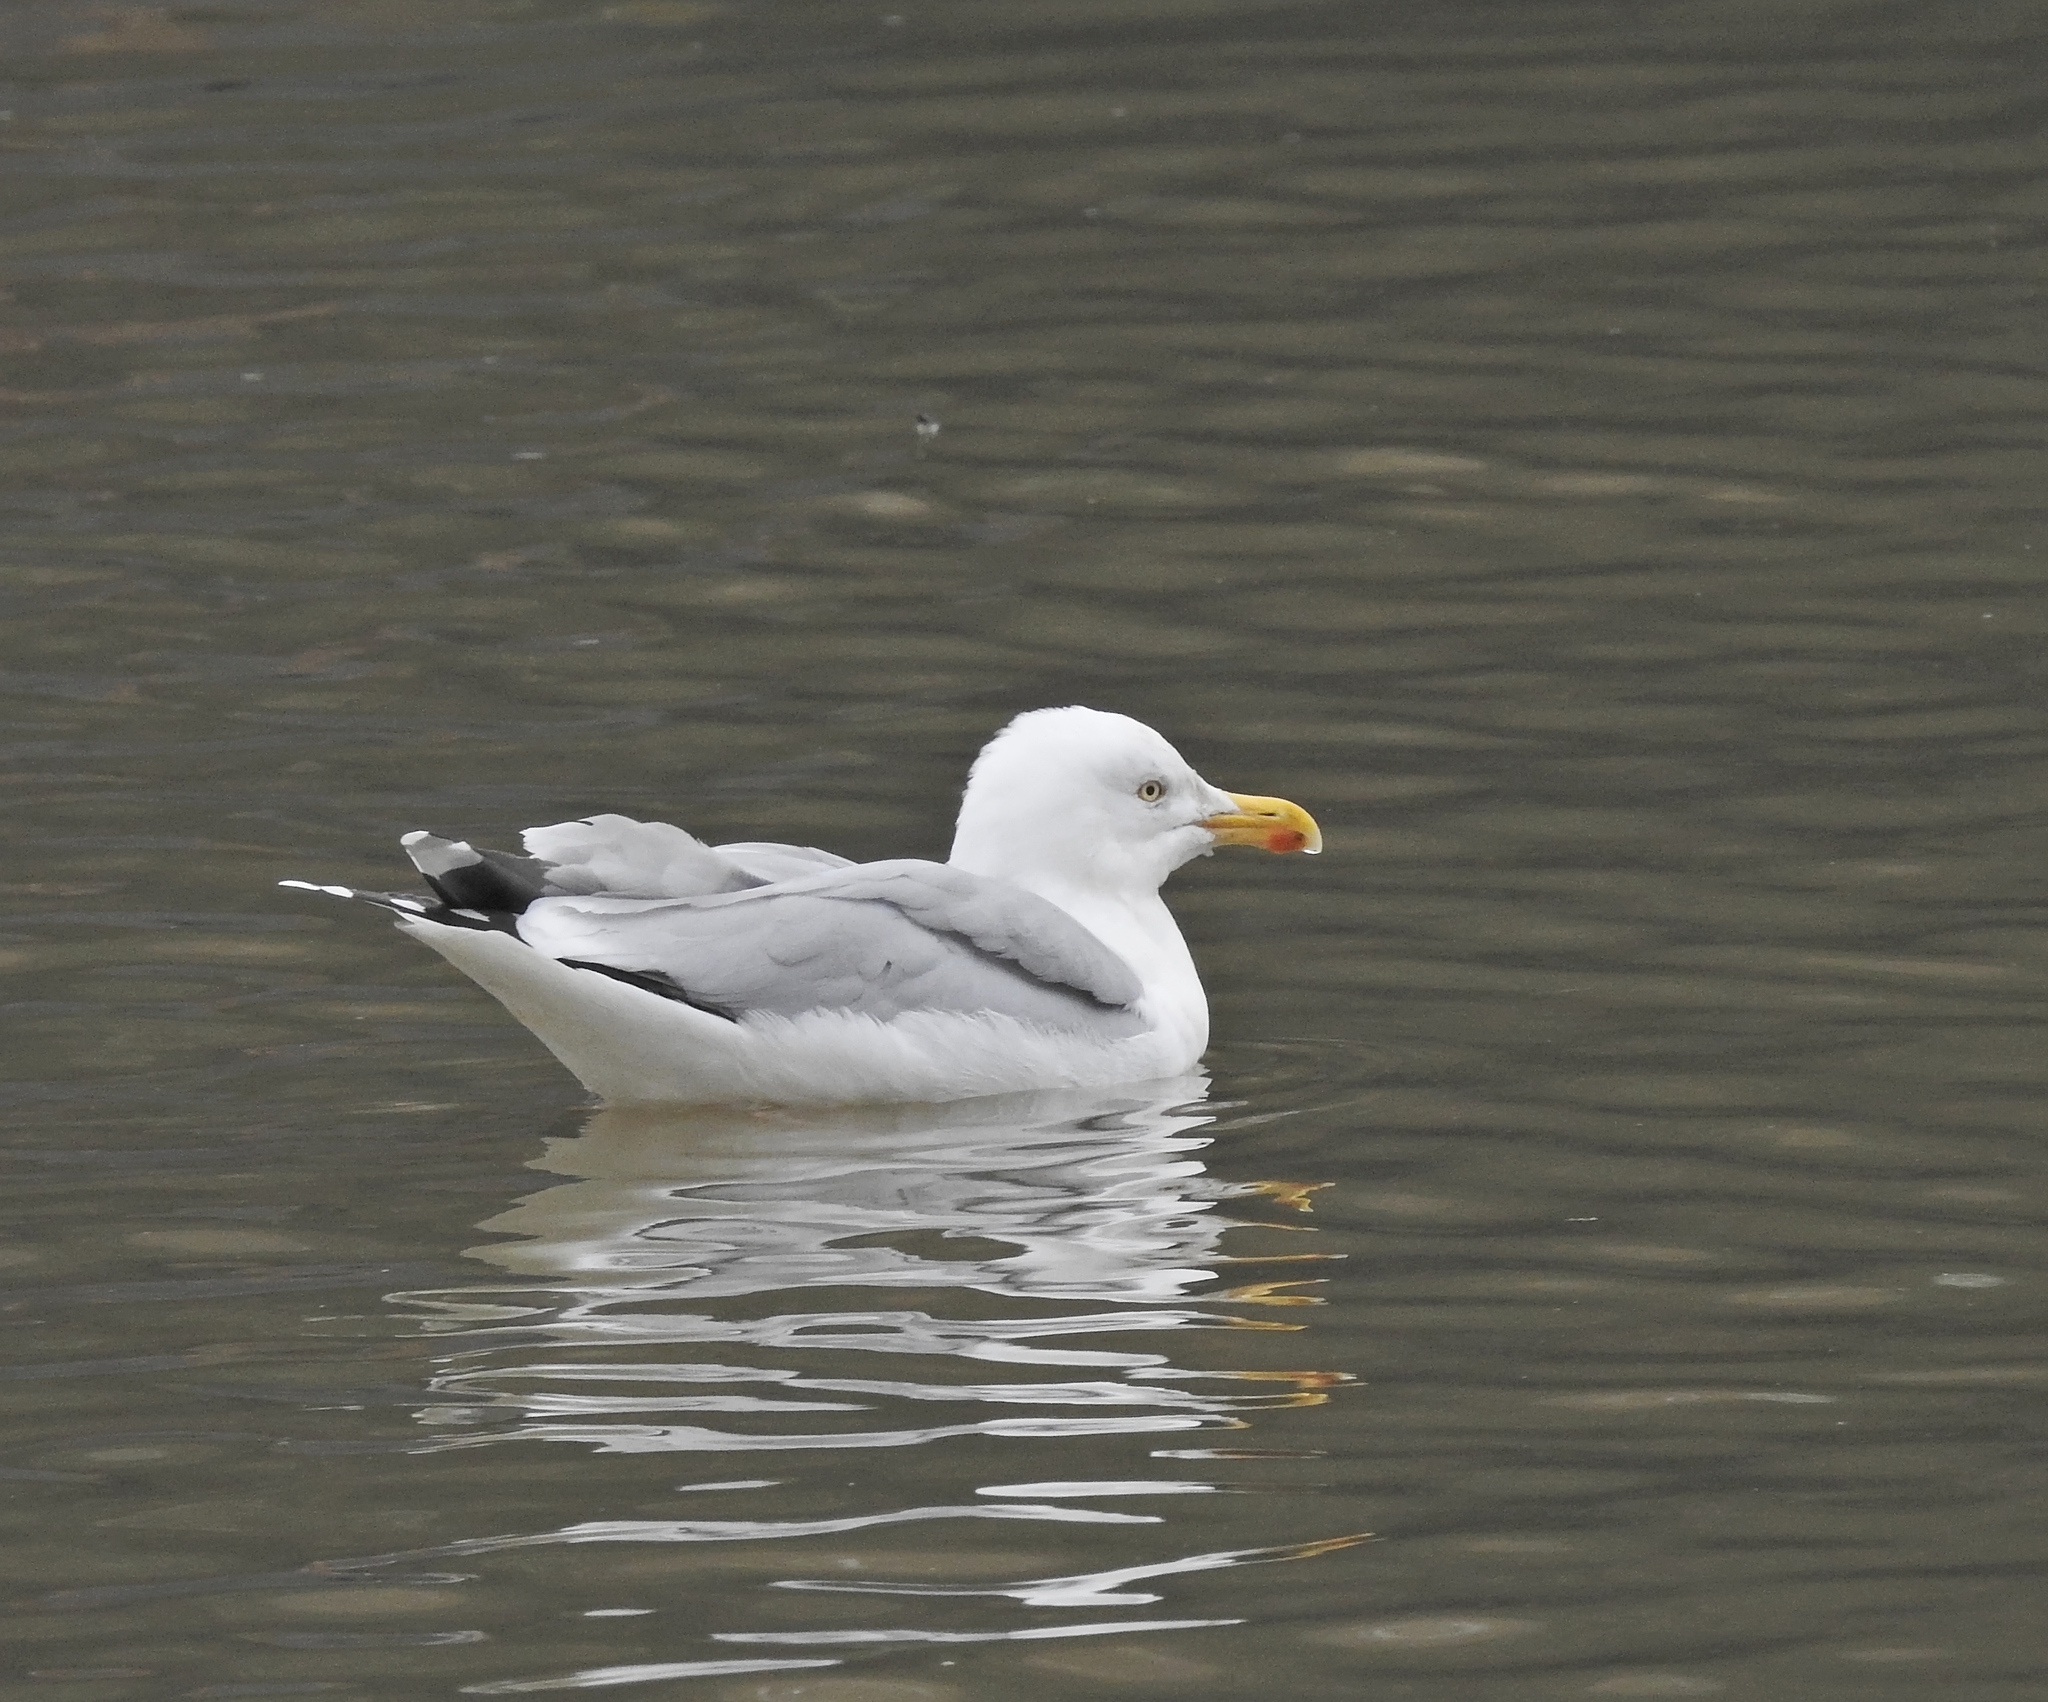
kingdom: Animalia
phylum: Chordata
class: Aves
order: Charadriiformes
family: Laridae
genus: Larus
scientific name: Larus argentatus
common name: Herring gull
